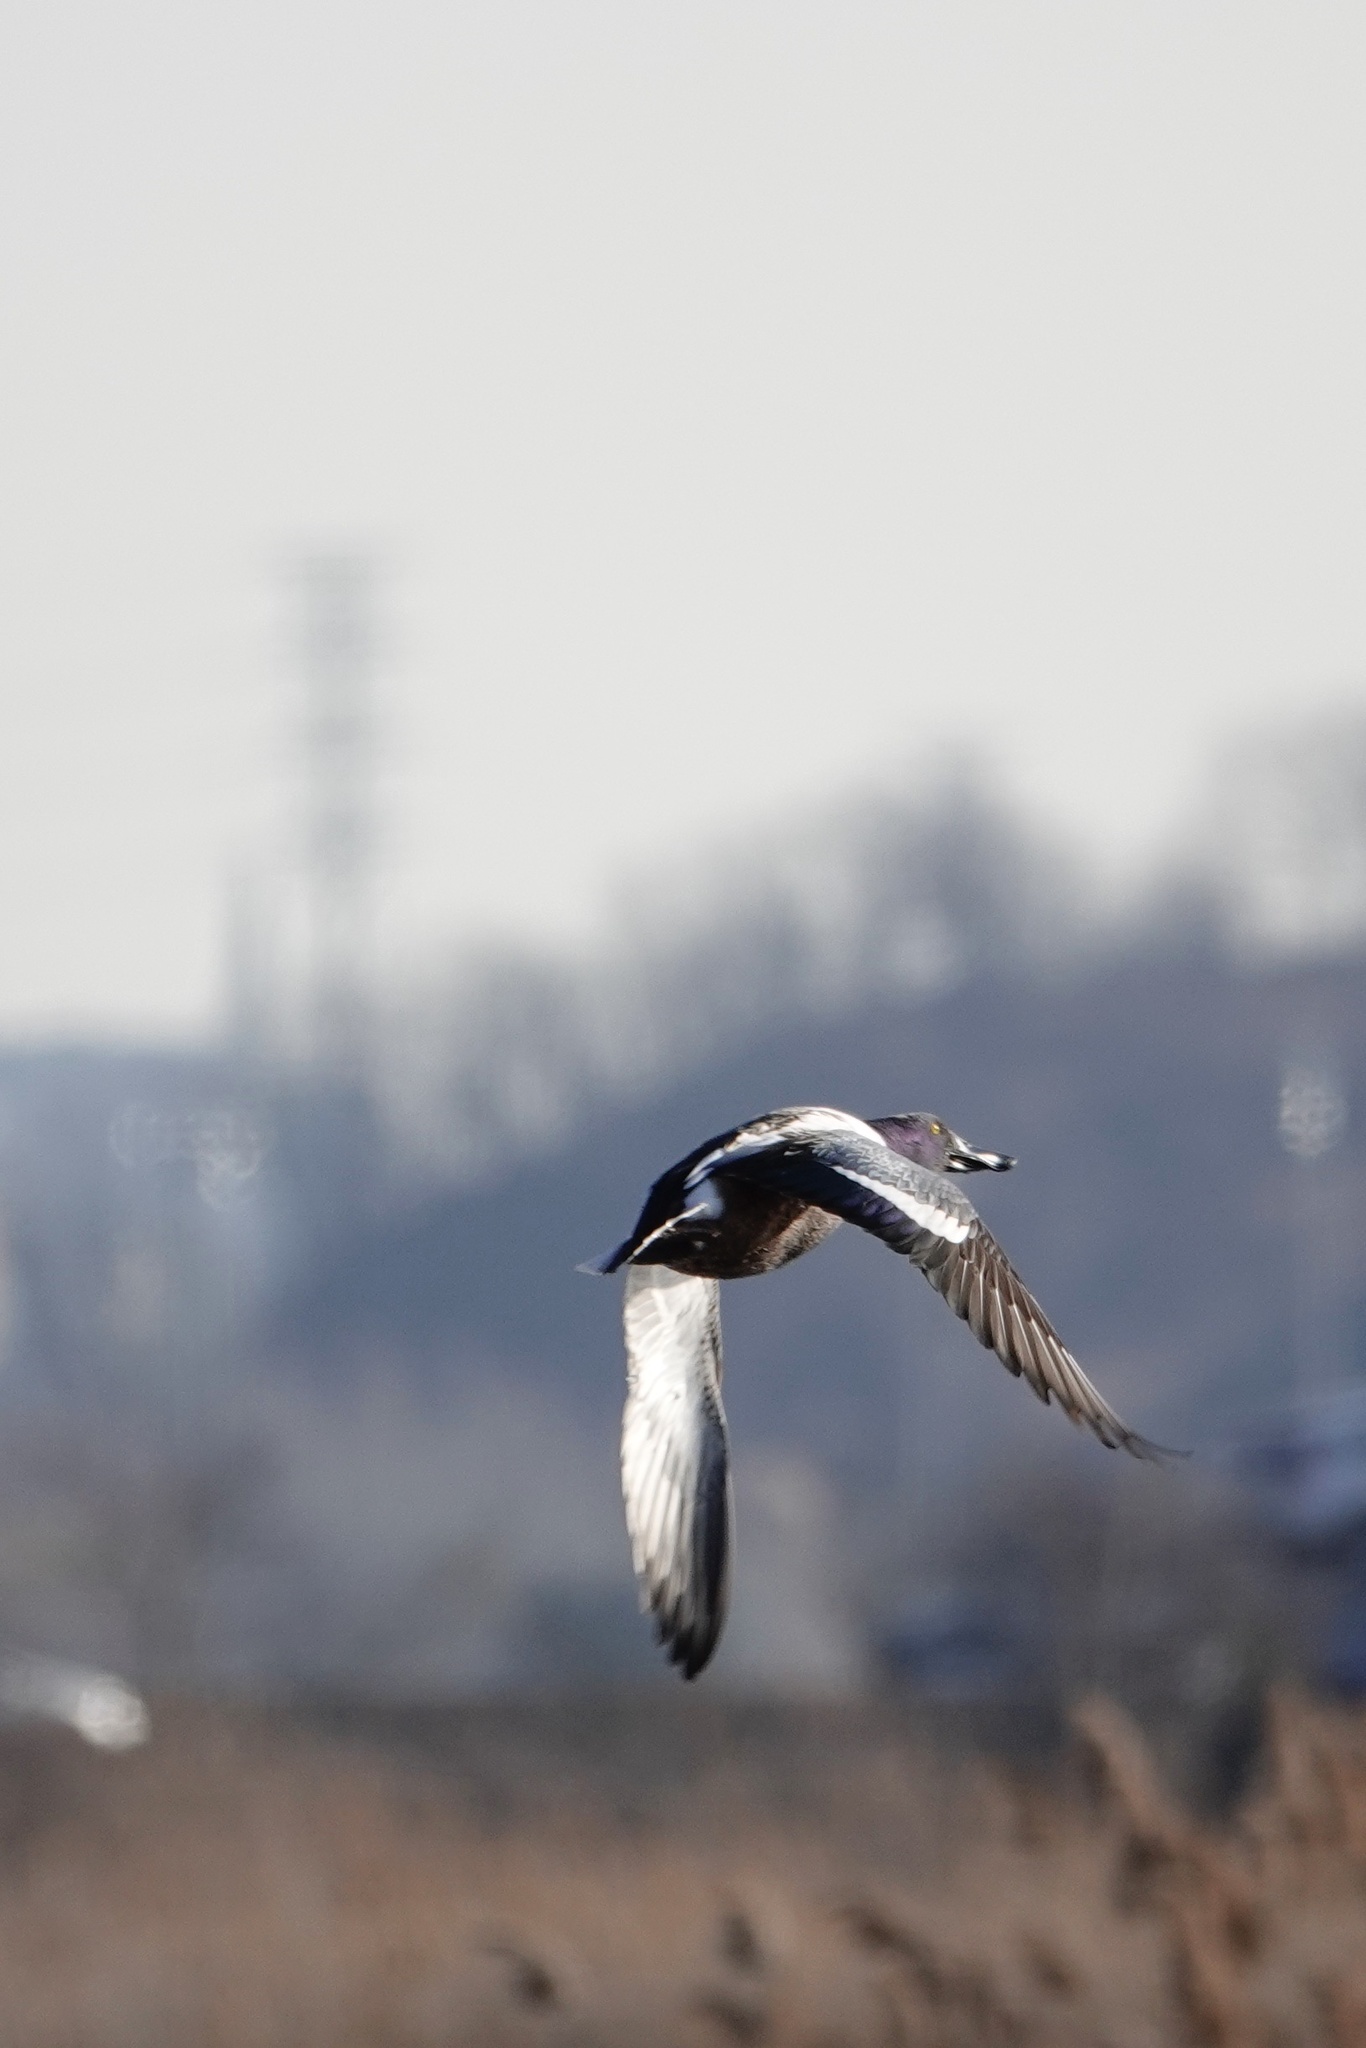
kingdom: Animalia
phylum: Chordata
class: Aves
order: Anseriformes
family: Anatidae
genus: Spatula
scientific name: Spatula clypeata
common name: Northern shoveler
